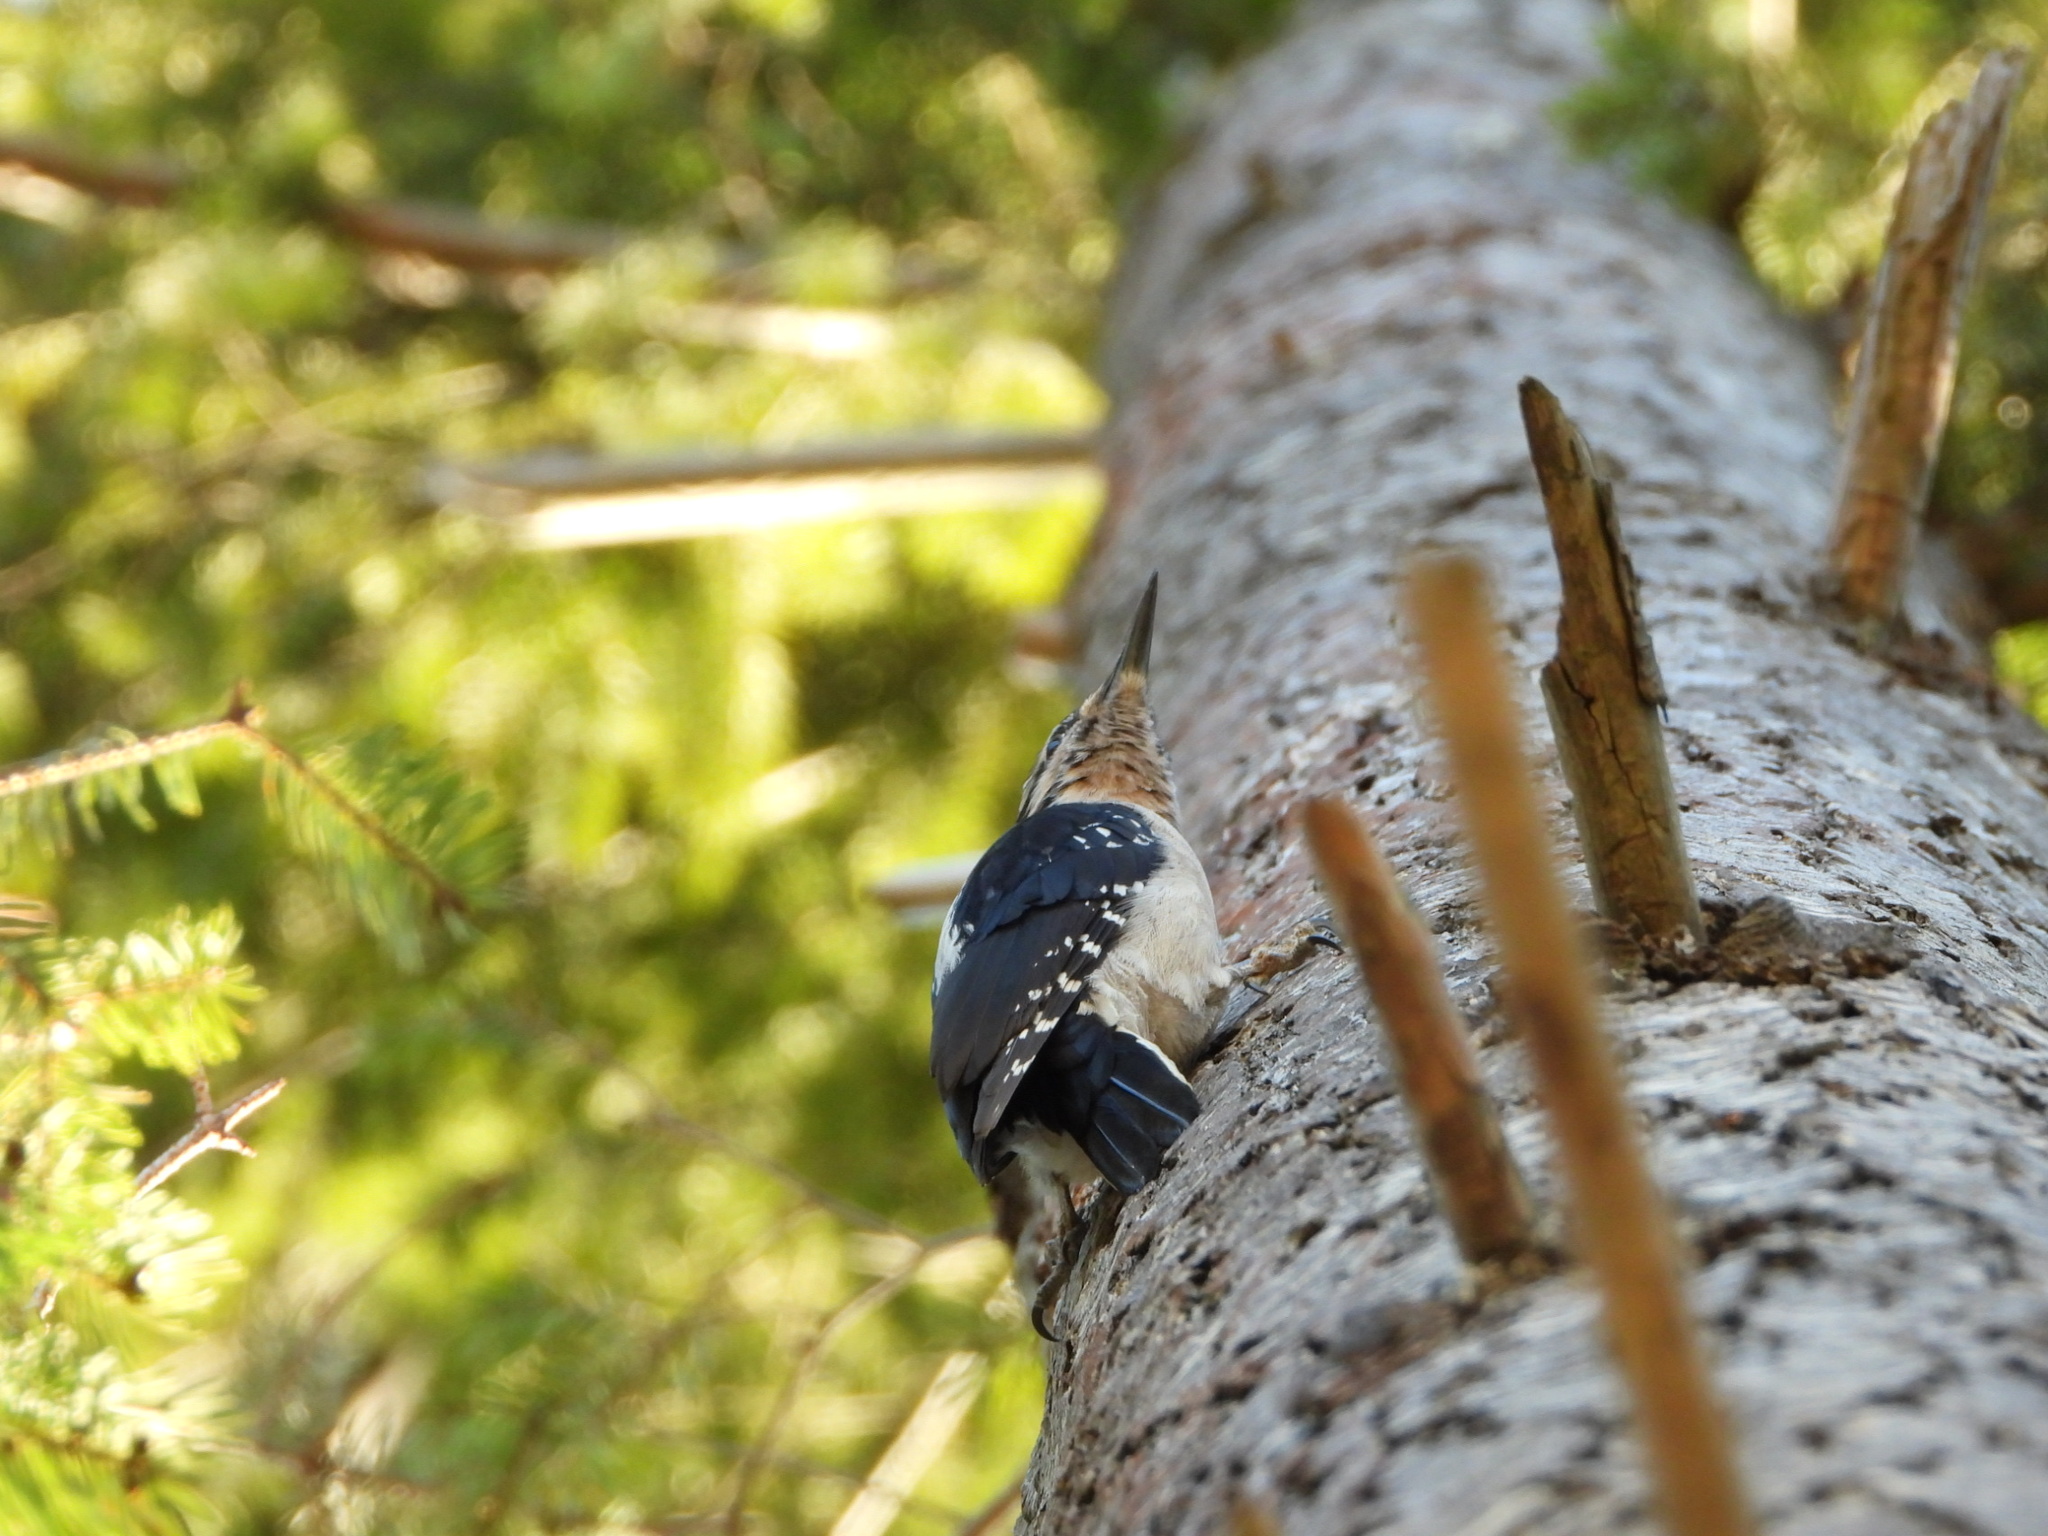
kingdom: Animalia
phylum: Chordata
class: Aves
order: Piciformes
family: Picidae
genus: Leuconotopicus
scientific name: Leuconotopicus villosus
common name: Hairy woodpecker
